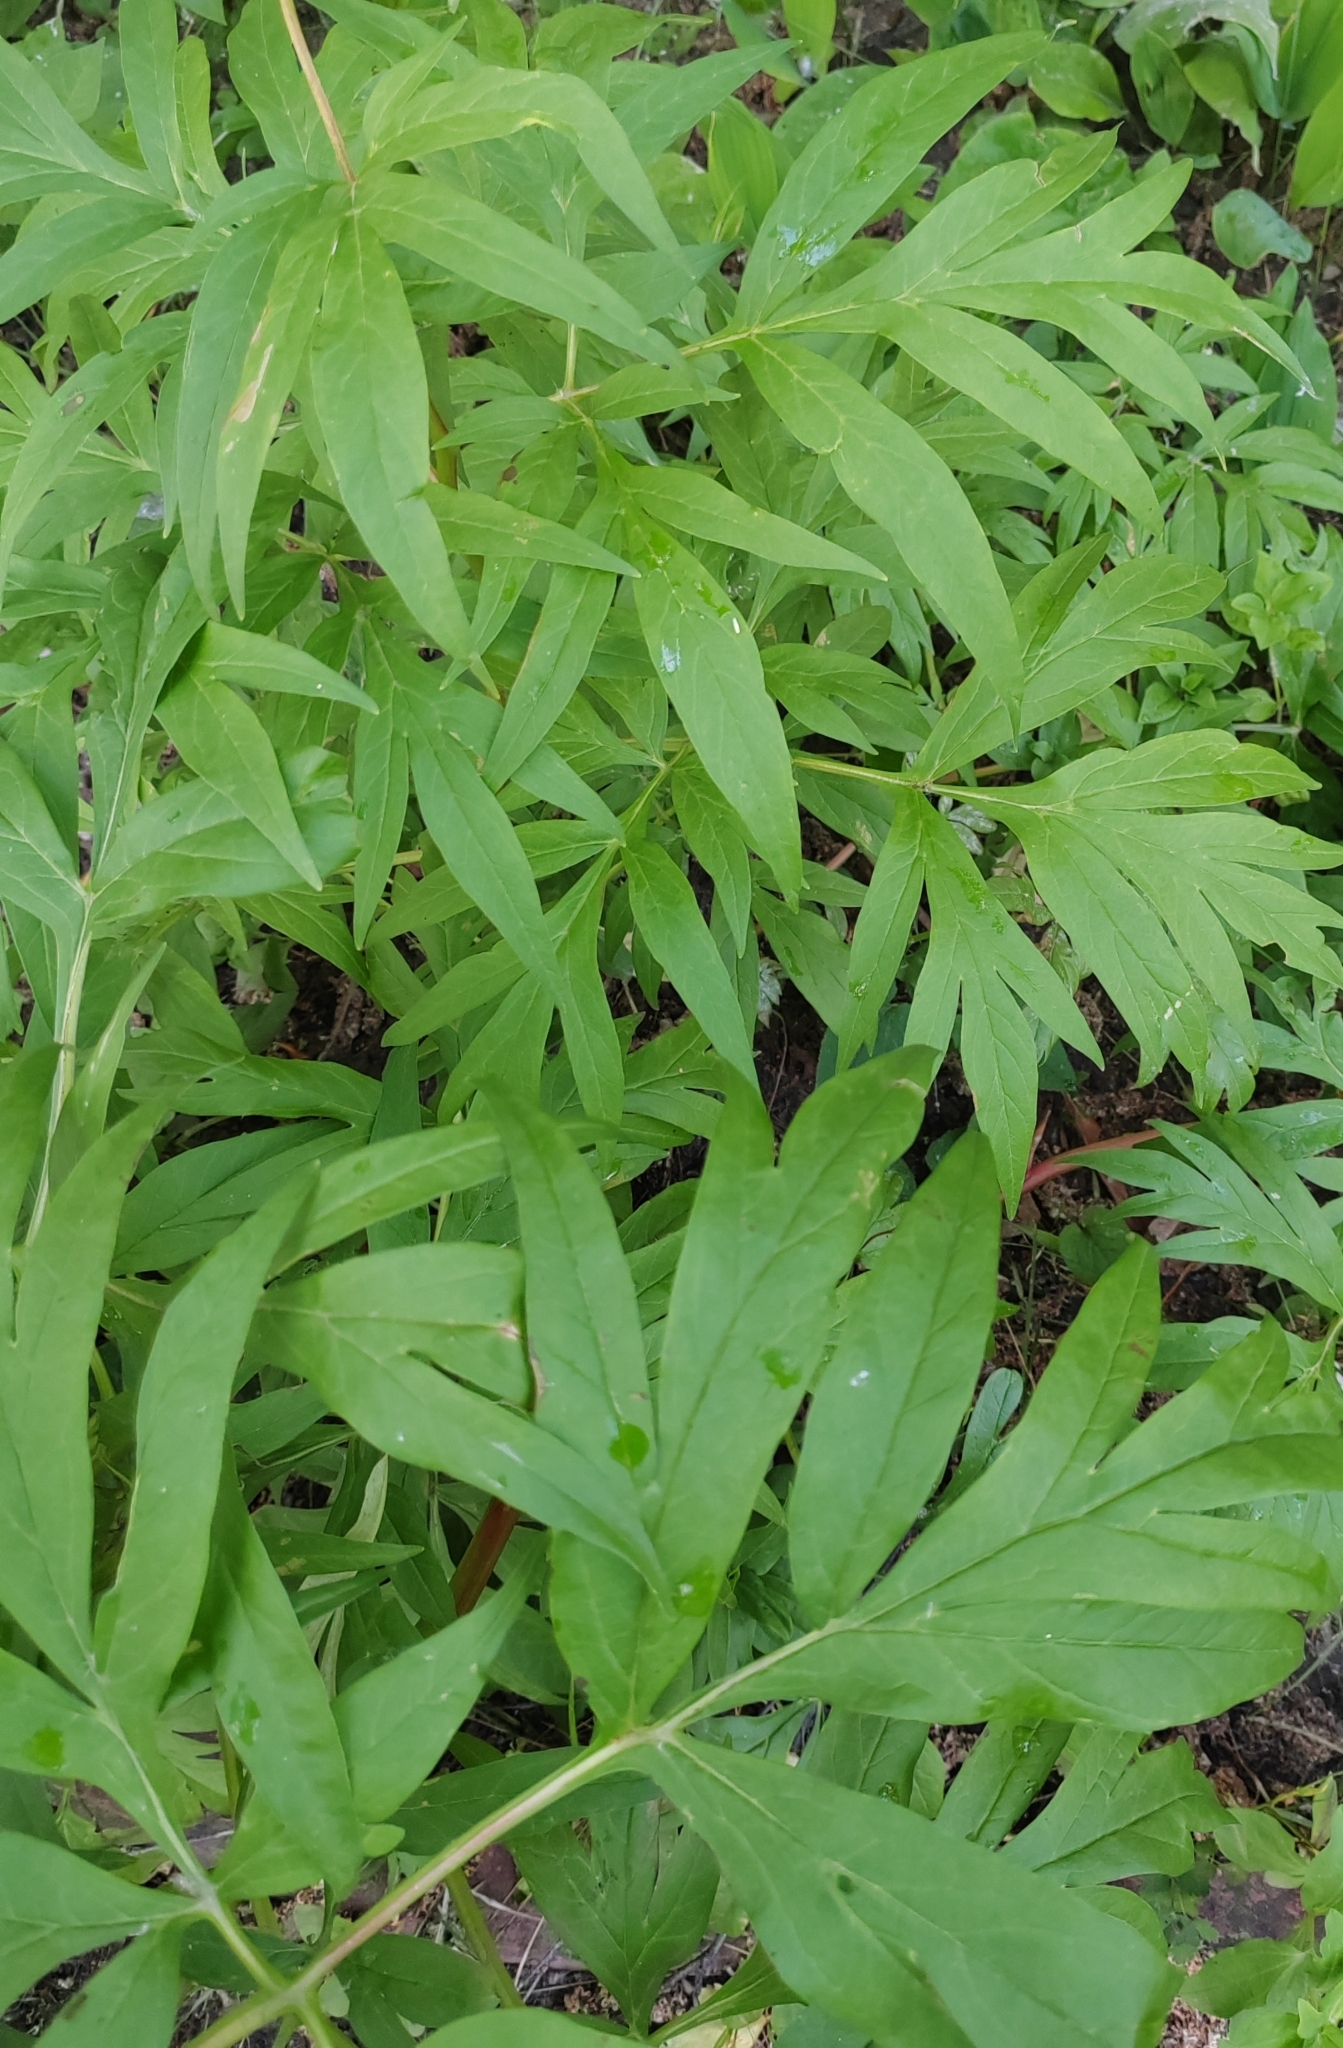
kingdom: Plantae
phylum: Tracheophyta
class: Magnoliopsida
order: Saxifragales
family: Paeoniaceae
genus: Paeonia
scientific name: Paeonia anomala
